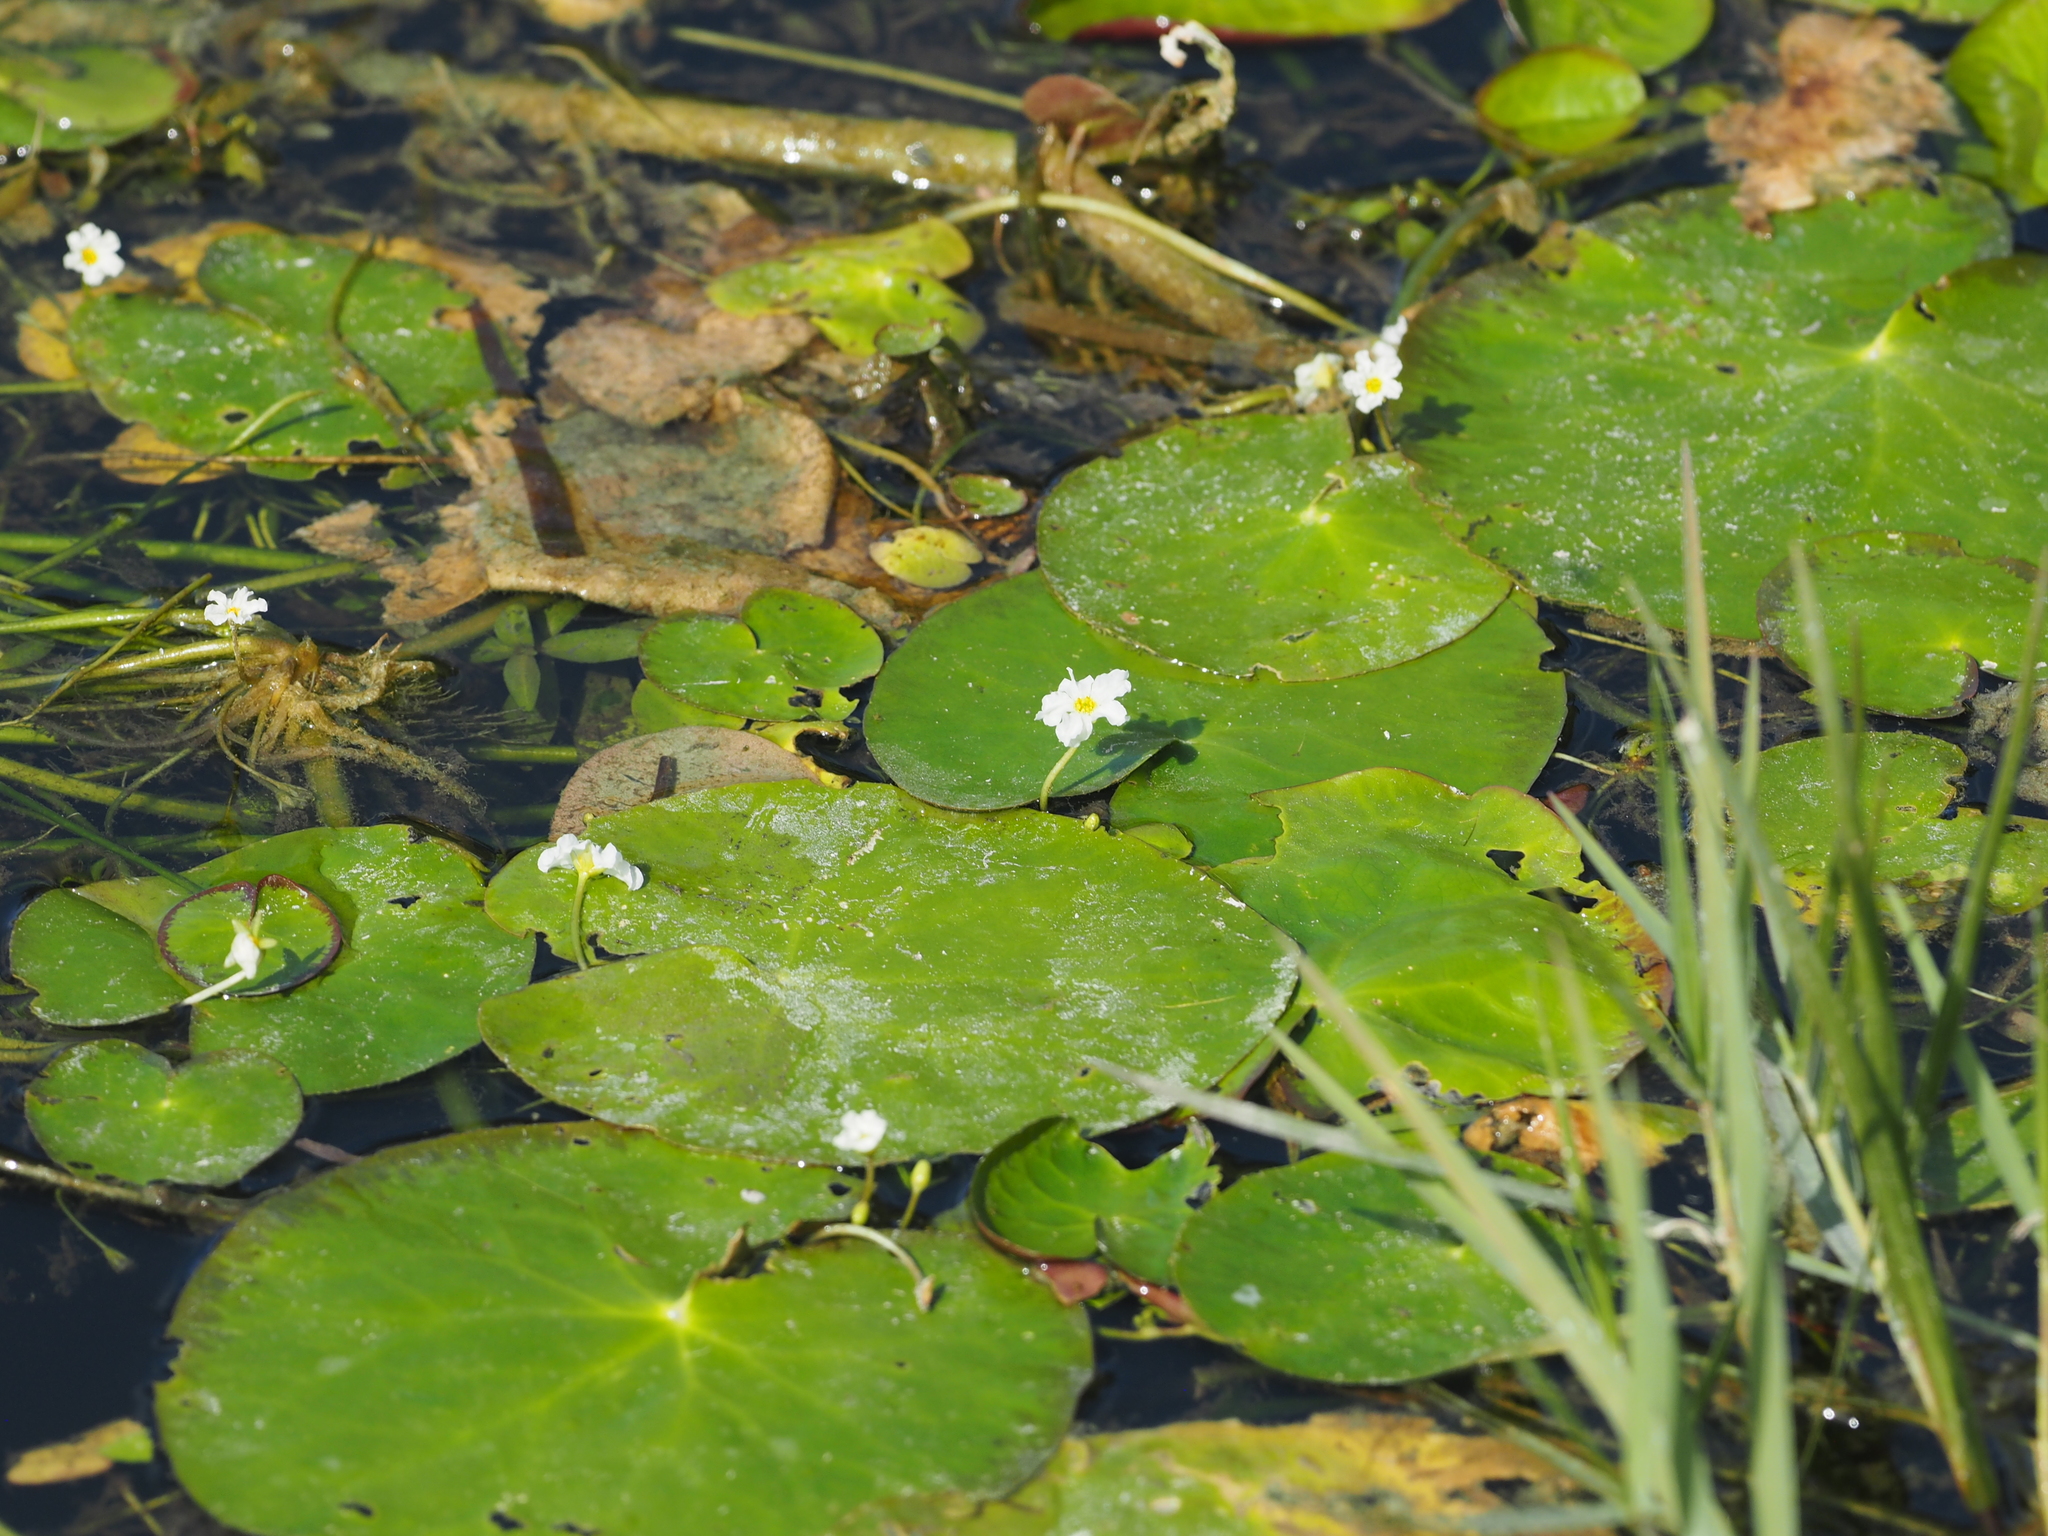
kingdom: Plantae
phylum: Tracheophyta
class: Magnoliopsida
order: Asterales
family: Menyanthaceae
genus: Nymphoides
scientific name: Nymphoides hydrophylla
